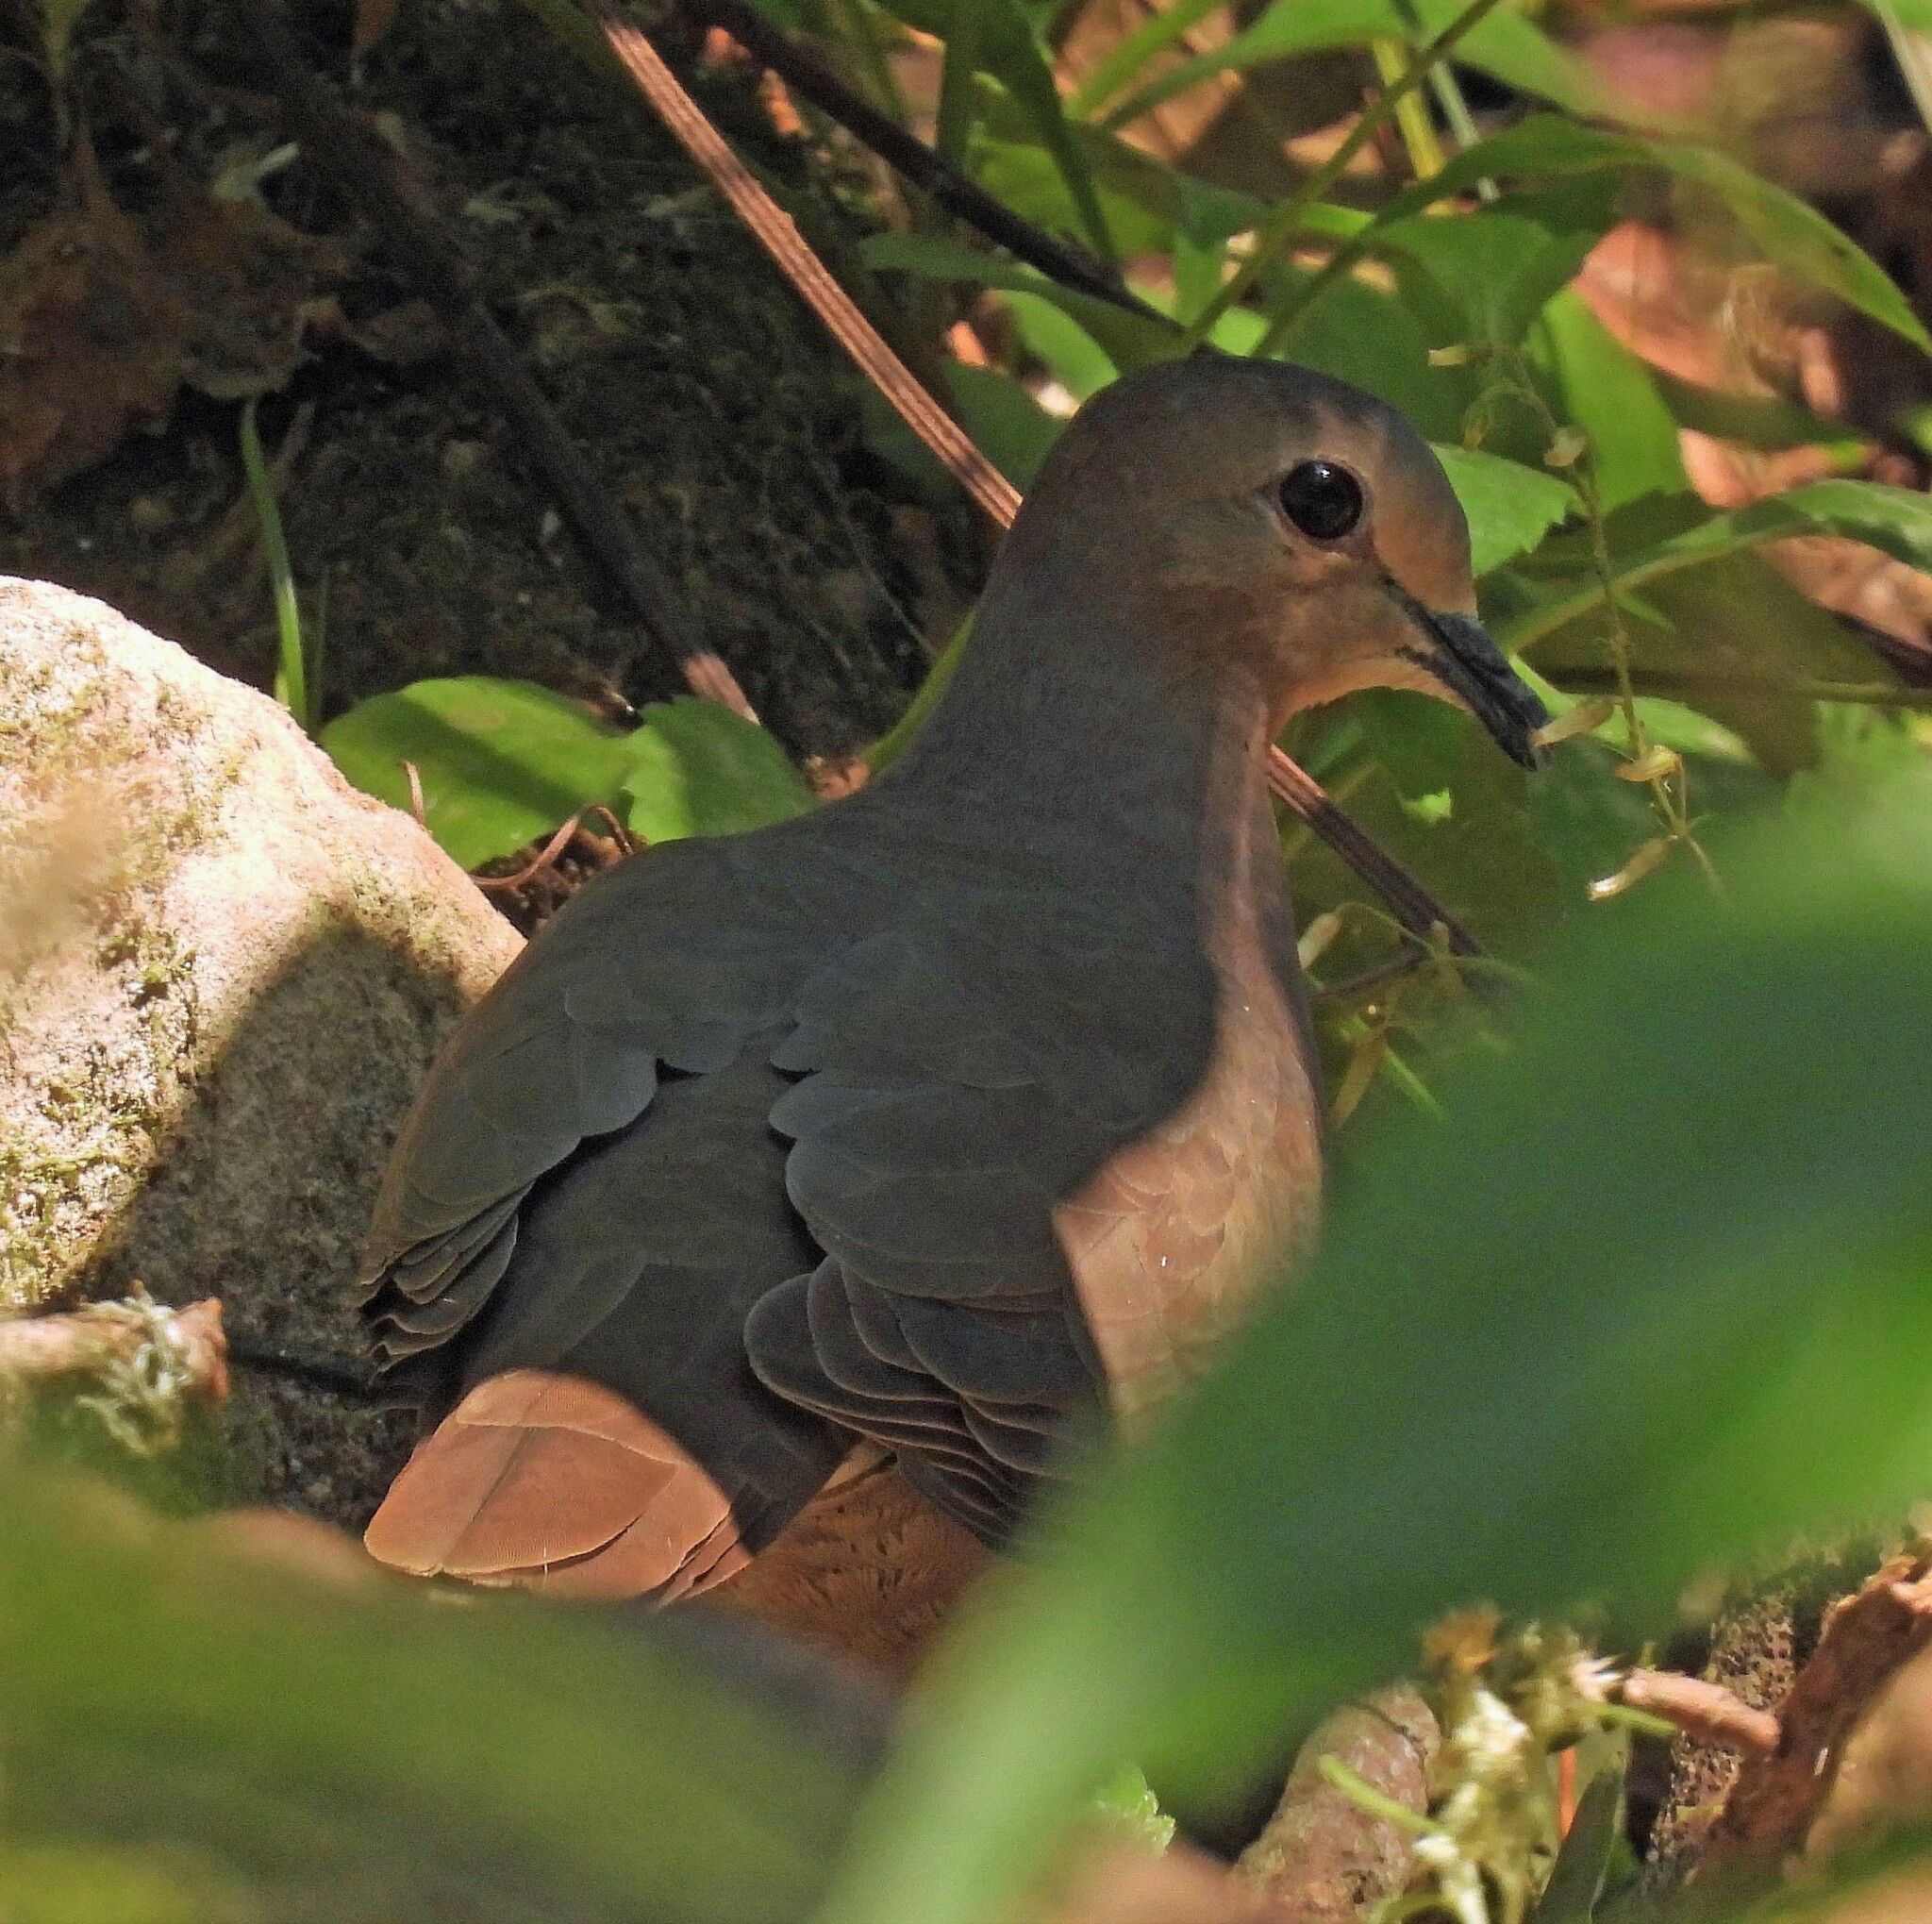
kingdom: Animalia
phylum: Chordata
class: Aves
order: Columbiformes
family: Columbidae
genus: Leptotila
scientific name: Leptotila megalura
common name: Yungas dove
